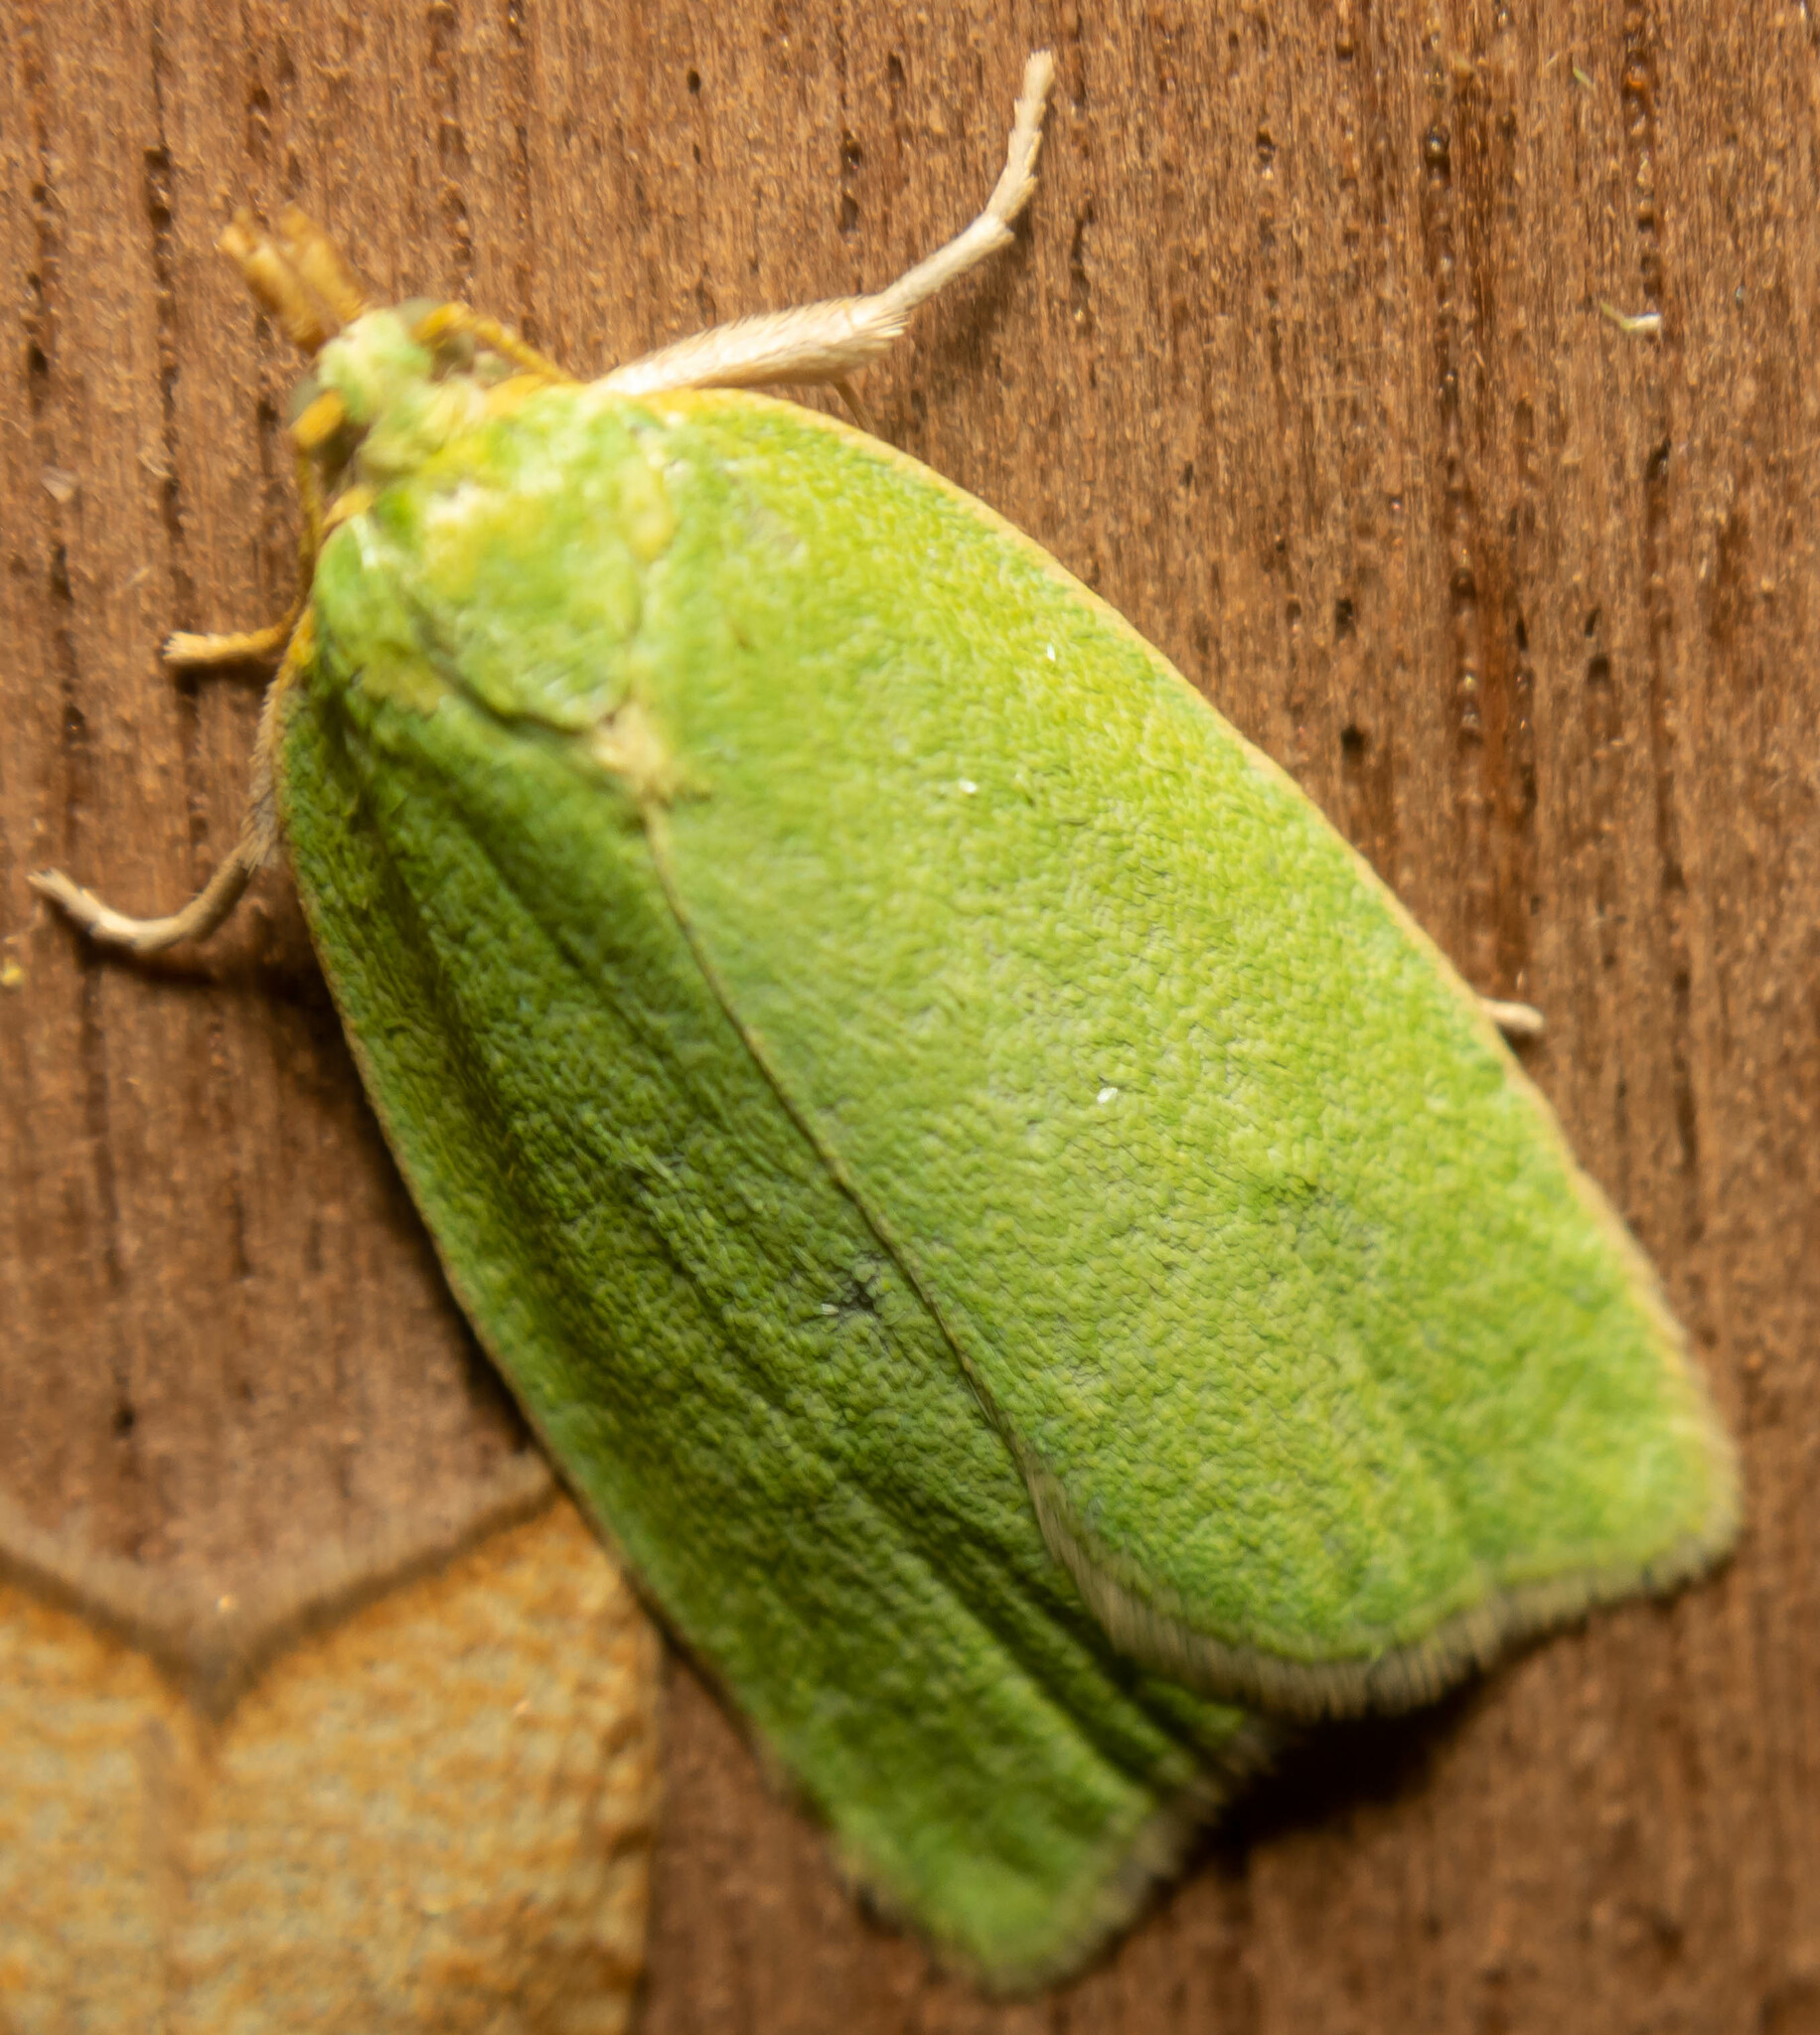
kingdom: Animalia
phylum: Arthropoda
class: Insecta
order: Lepidoptera
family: Tortricidae
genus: Tortrix
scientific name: Tortrix viridana
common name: Green oak tortrix
